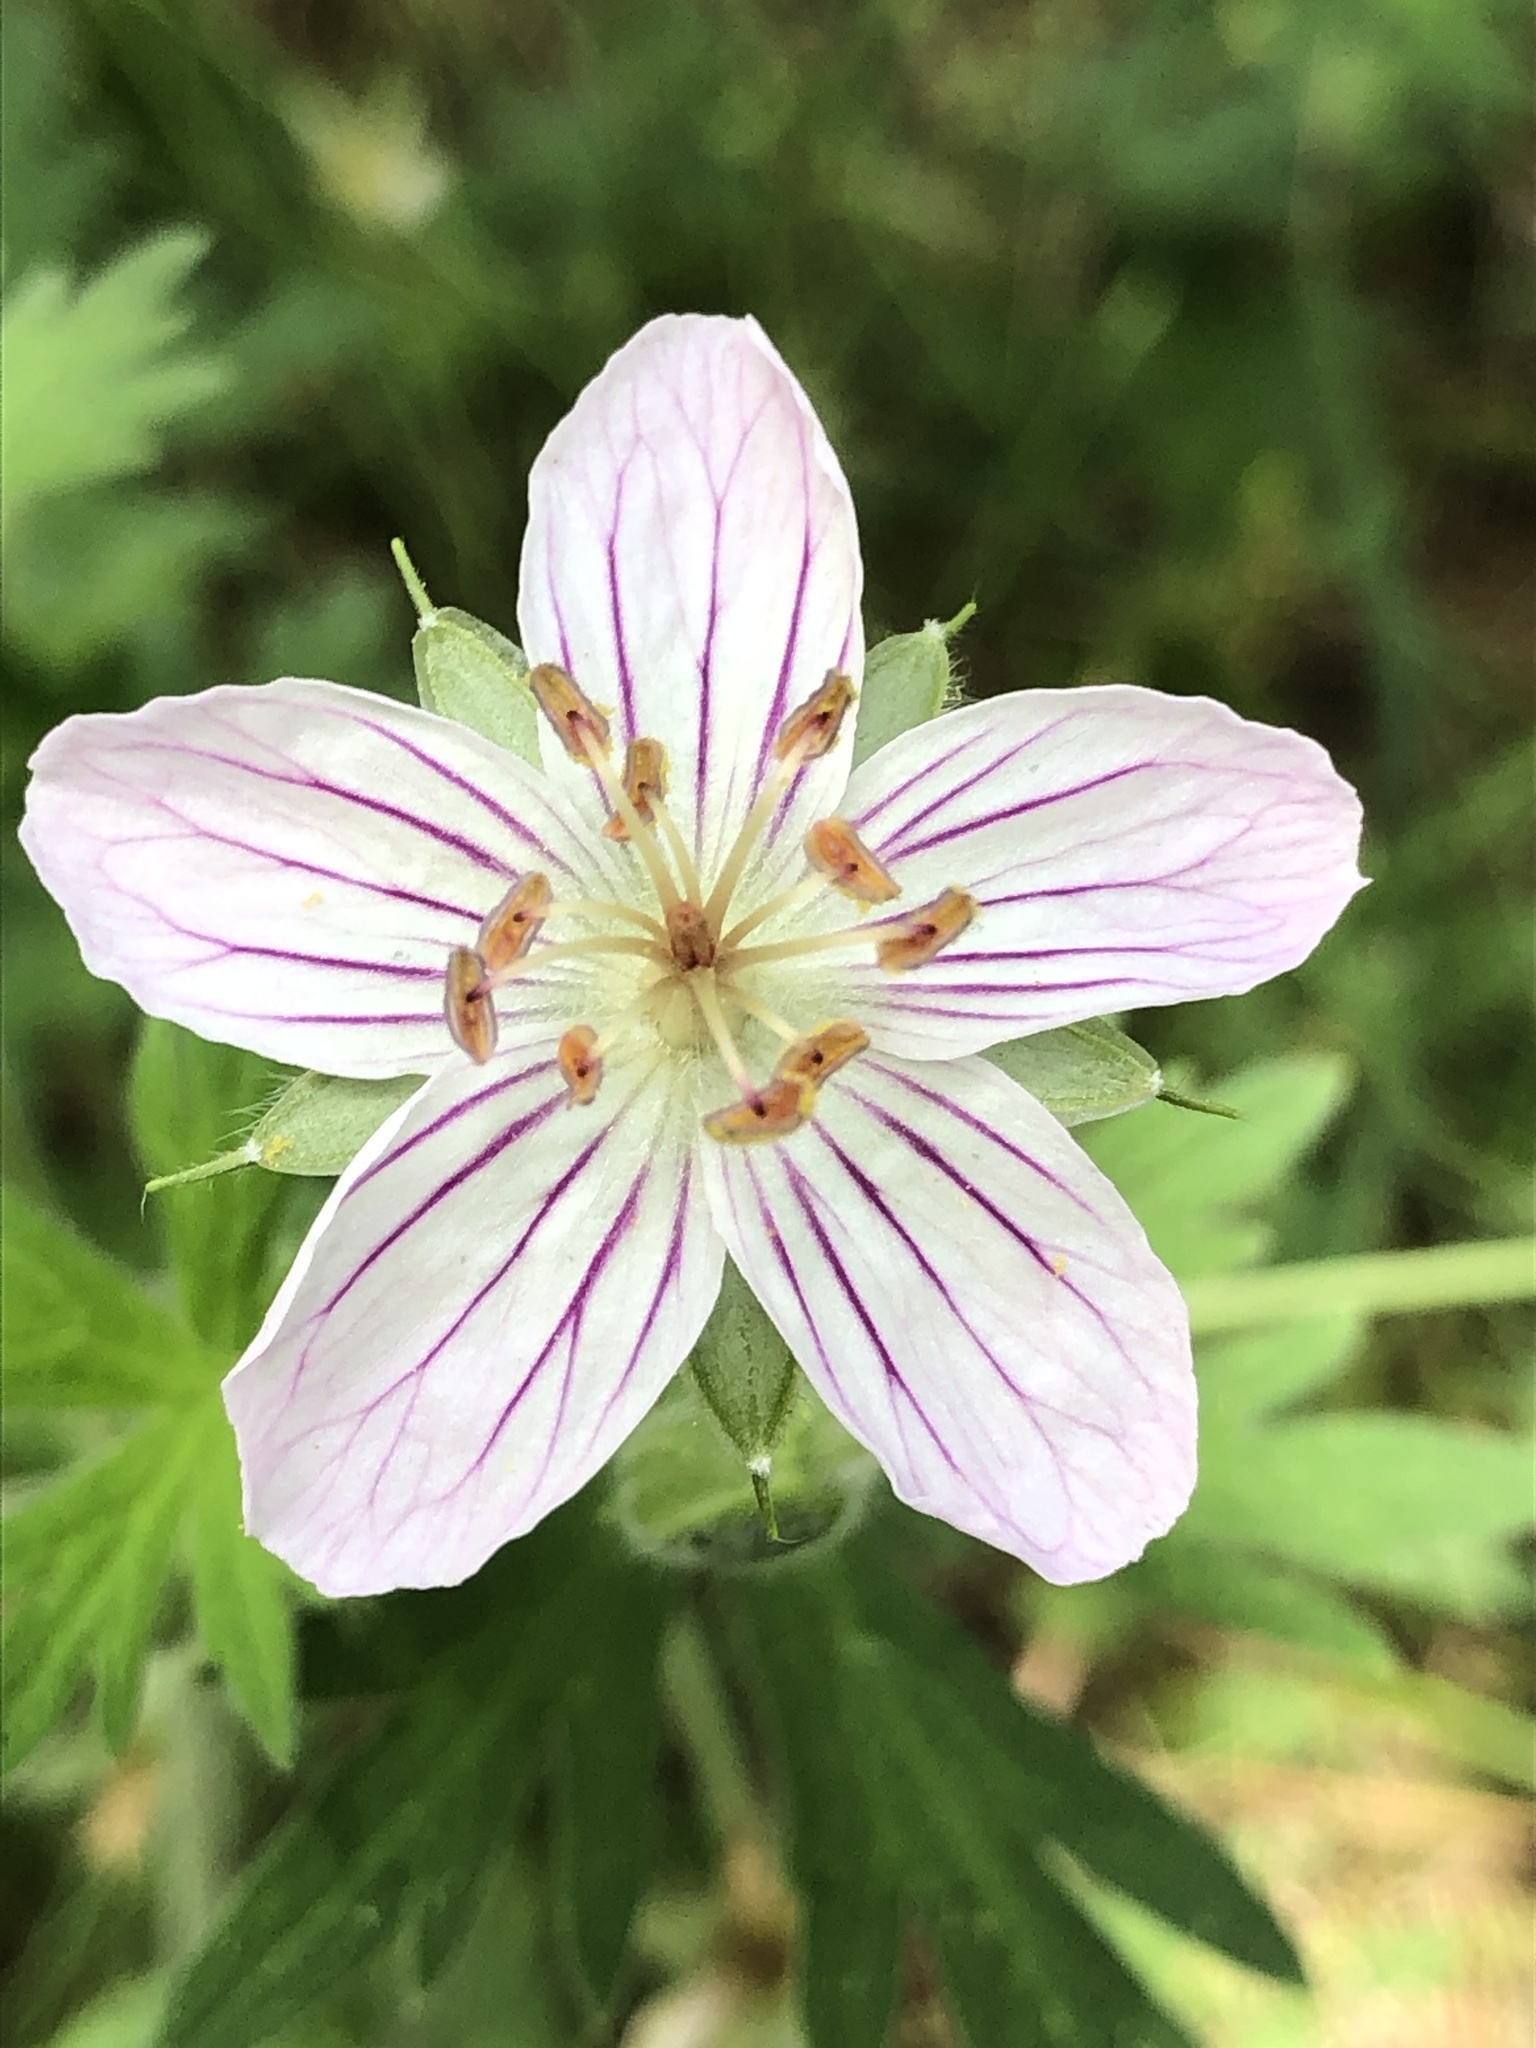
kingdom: Plantae
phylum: Tracheophyta
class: Magnoliopsida
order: Geraniales
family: Geraniaceae
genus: Geranium
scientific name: Geranium richardsonii
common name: Richardson's crane's-bill
